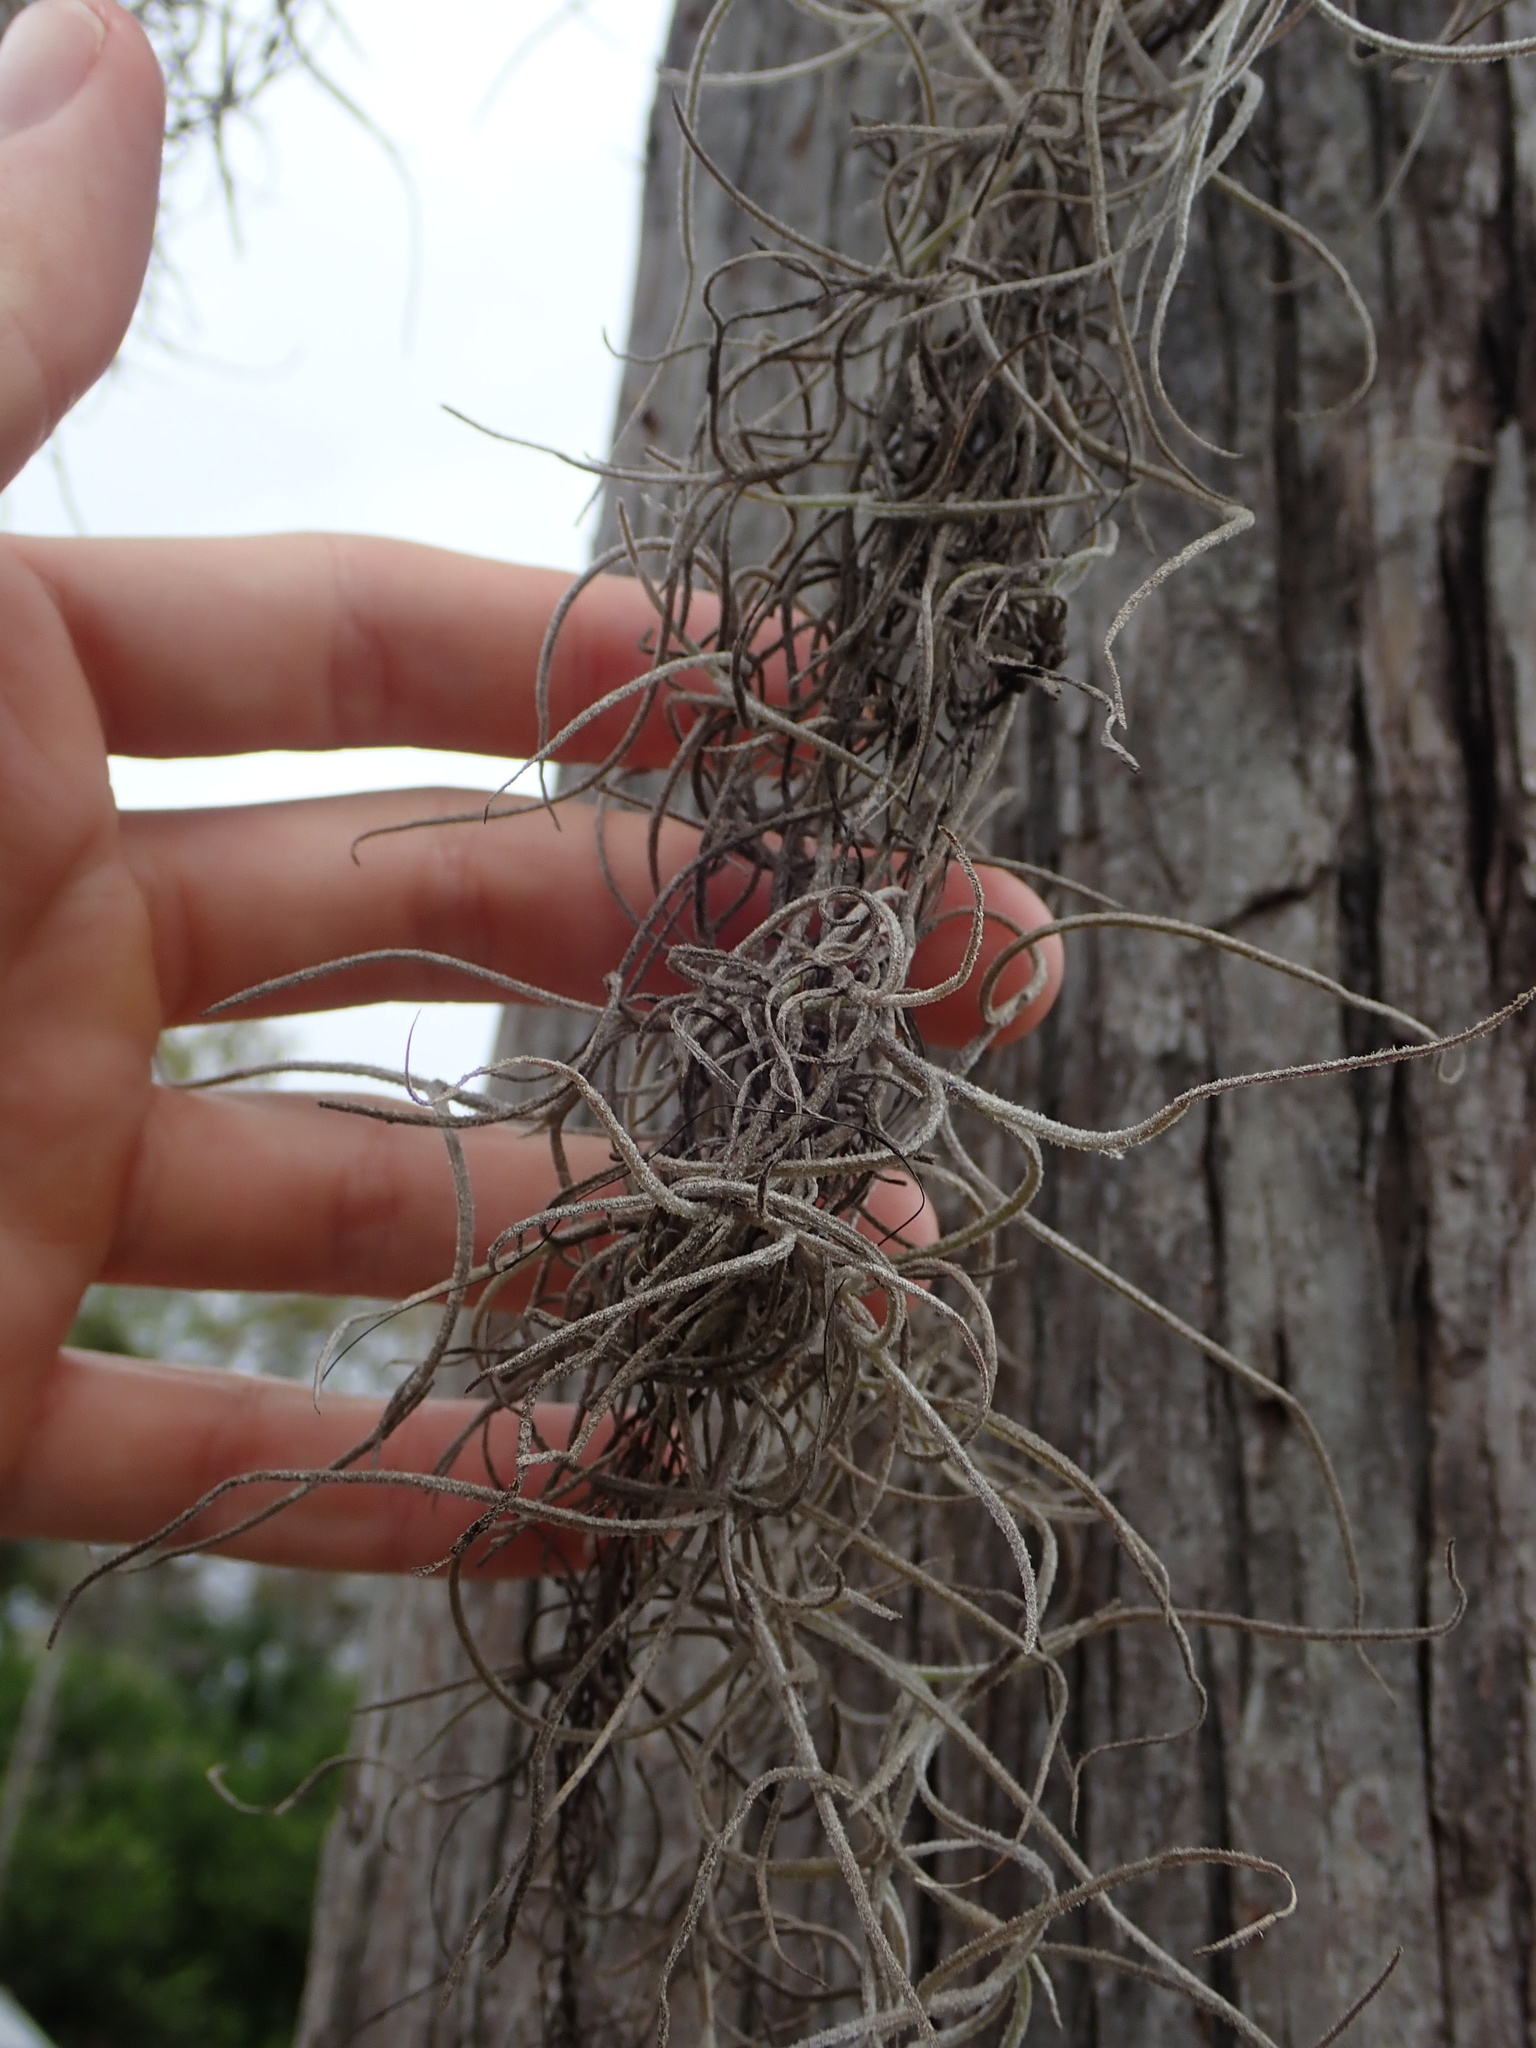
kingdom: Plantae
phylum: Tracheophyta
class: Liliopsida
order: Poales
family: Bromeliaceae
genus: Tillandsia
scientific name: Tillandsia usneoides
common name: Spanish moss
